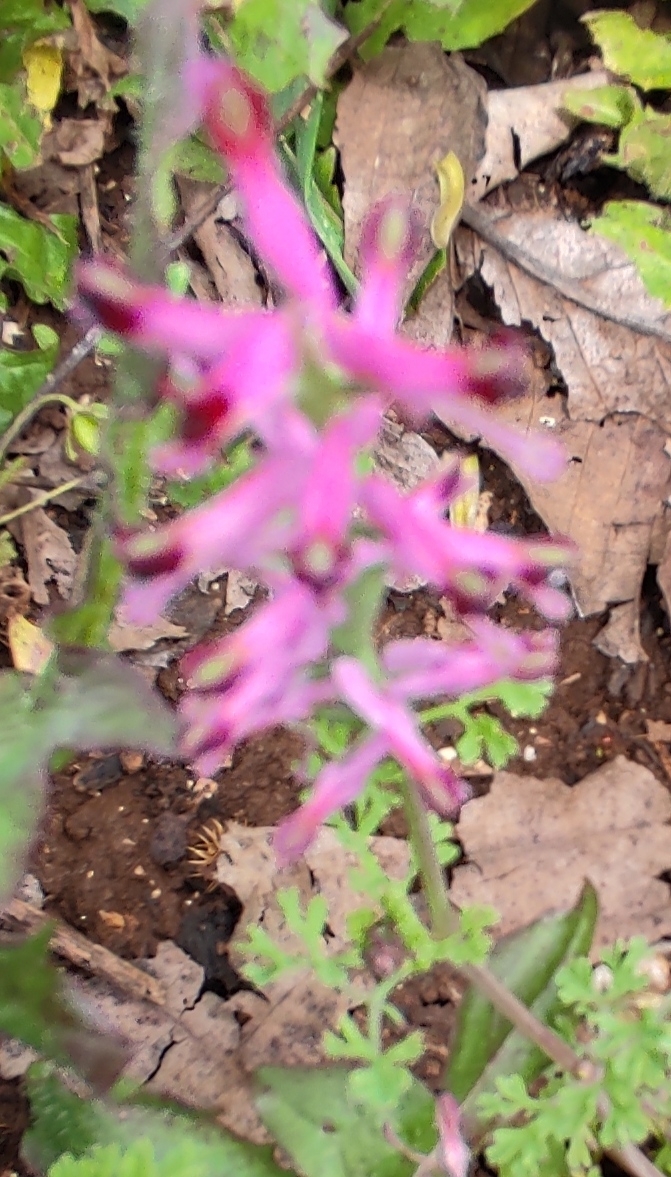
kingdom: Plantae
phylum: Tracheophyta
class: Magnoliopsida
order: Ranunculales
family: Papaveraceae
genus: Fumaria
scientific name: Fumaria officinalis
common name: Common fumitory
